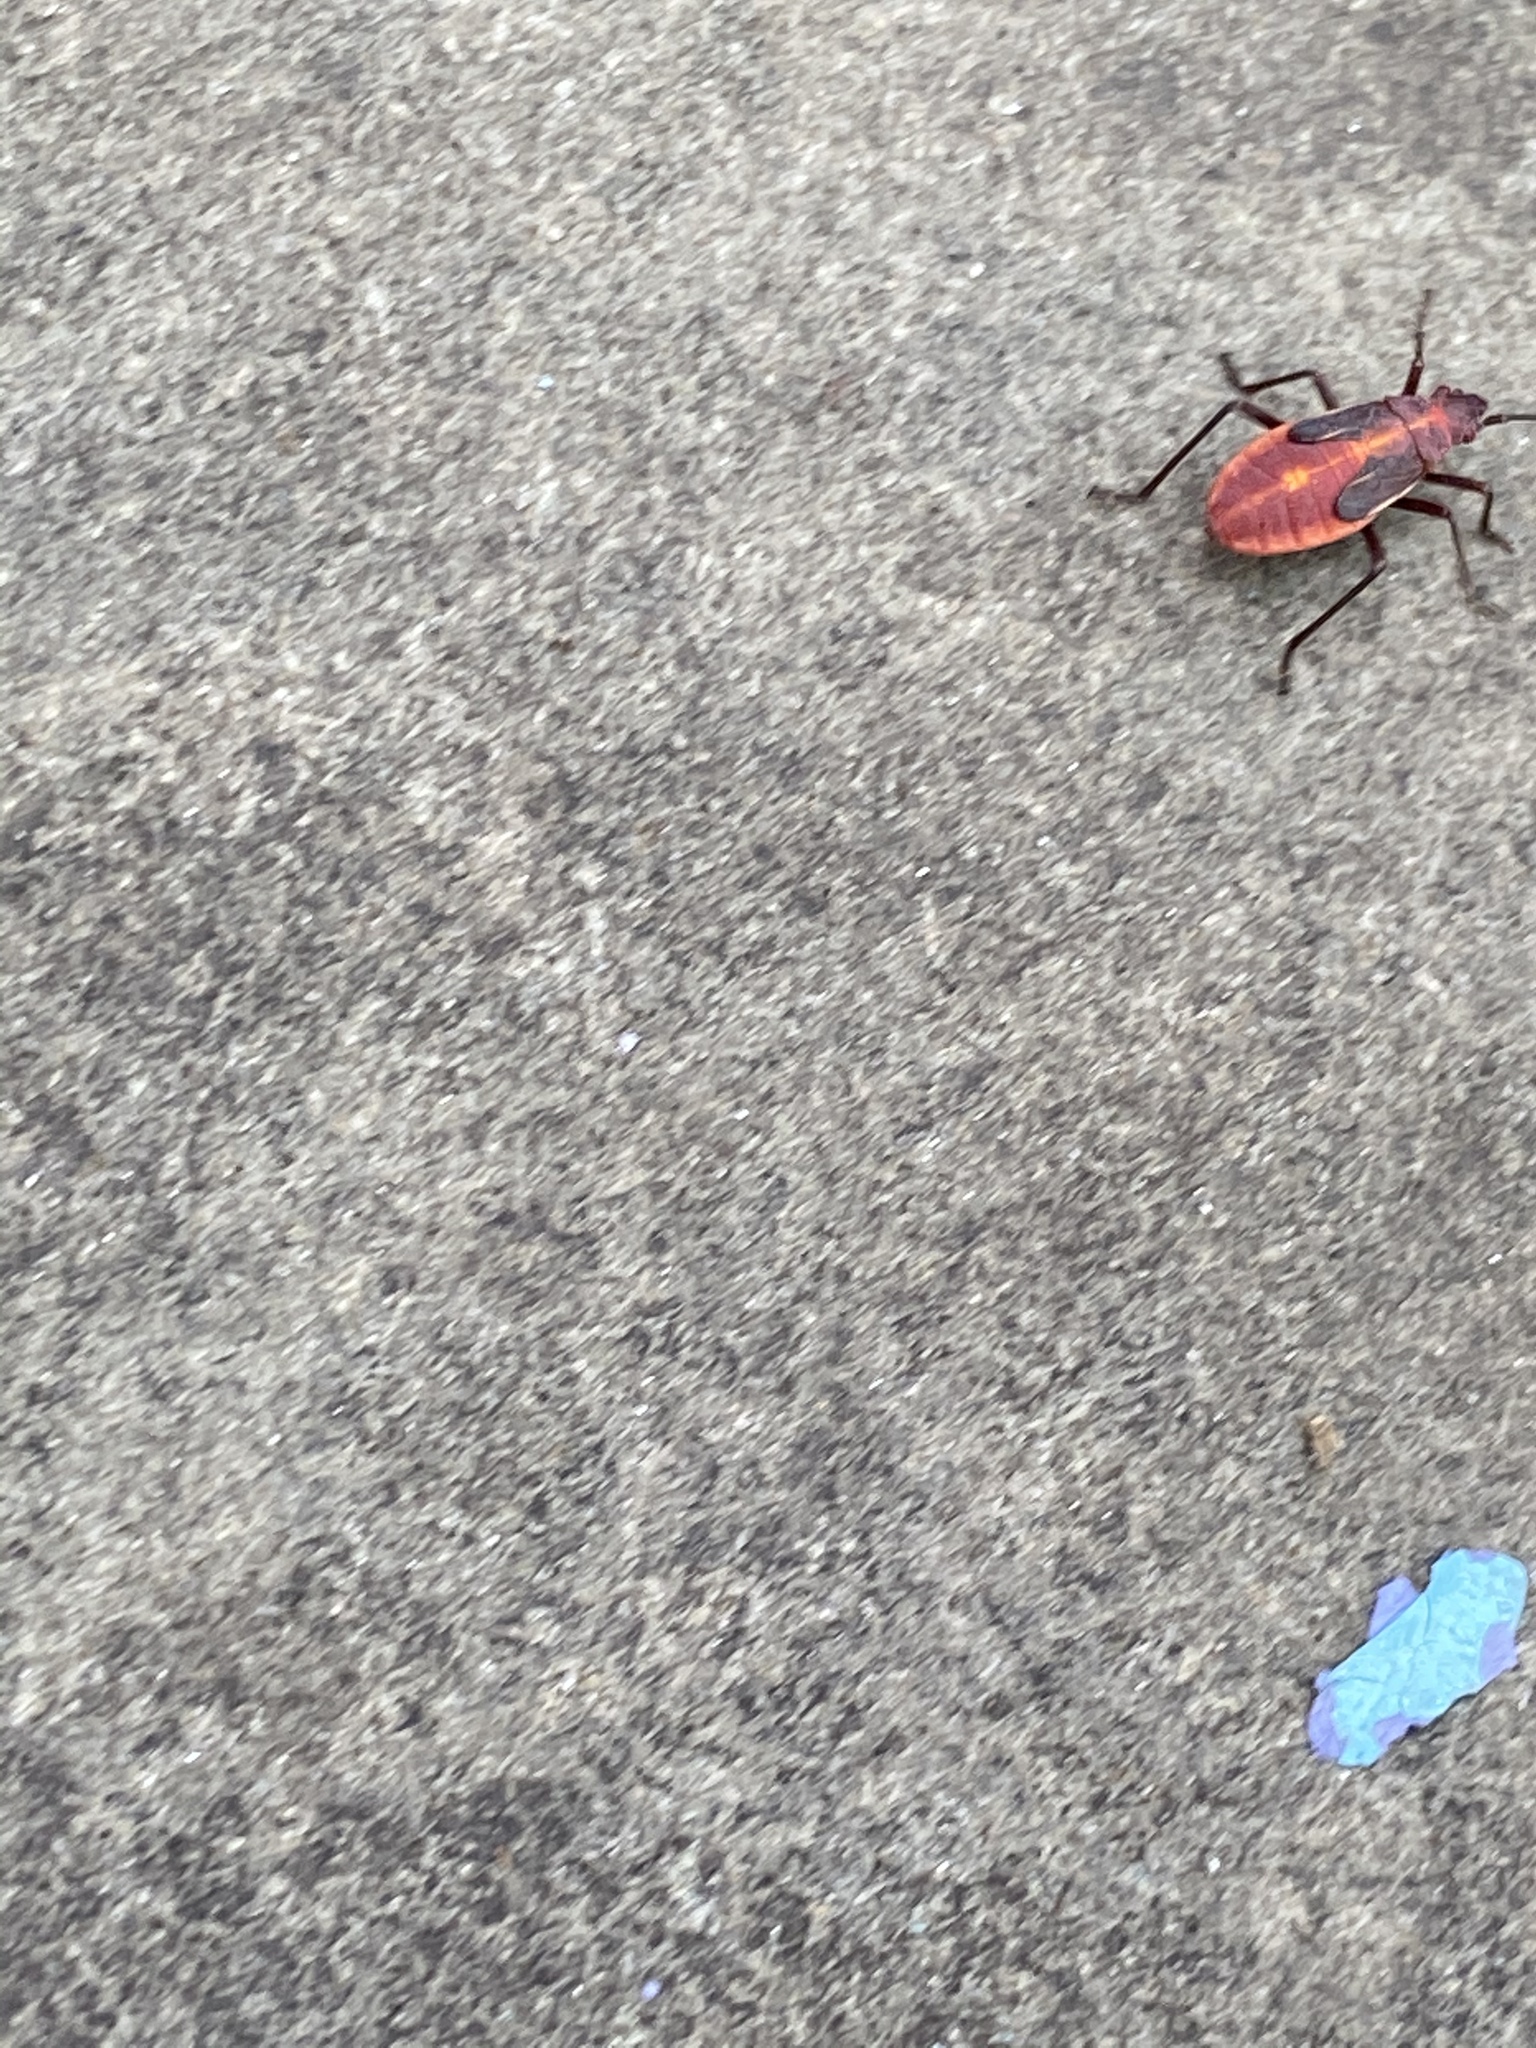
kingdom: Animalia
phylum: Arthropoda
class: Insecta
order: Hemiptera
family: Rhopalidae
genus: Boisea
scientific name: Boisea trivittata
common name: Boxelder bug
